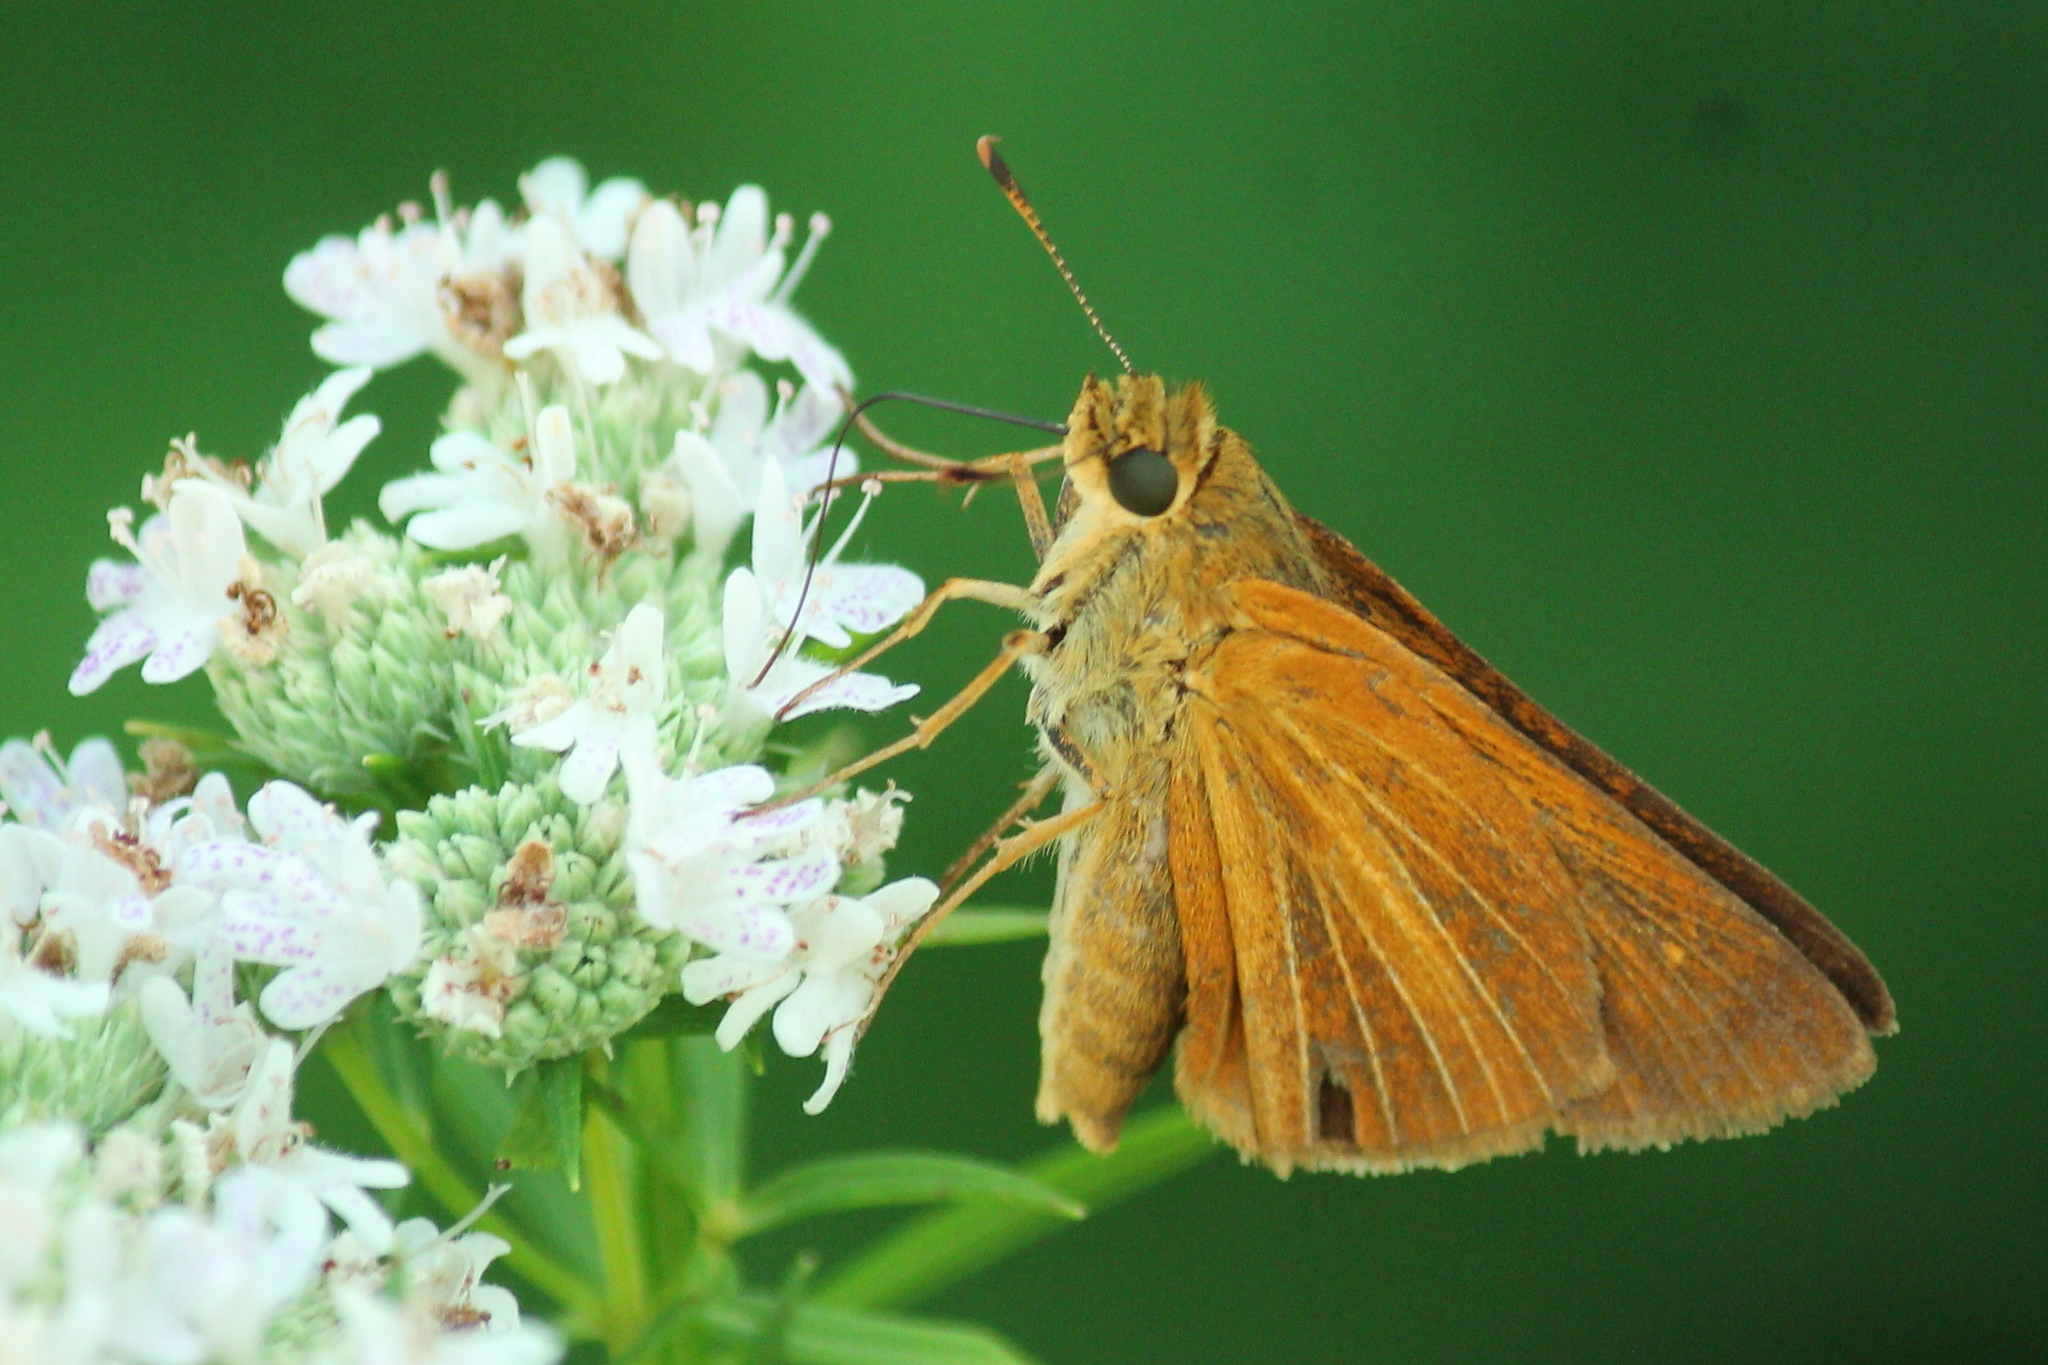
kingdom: Animalia
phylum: Arthropoda
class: Insecta
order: Lepidoptera
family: Hesperiidae
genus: Euphyes
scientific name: Euphyes dion
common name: Dion skipper
